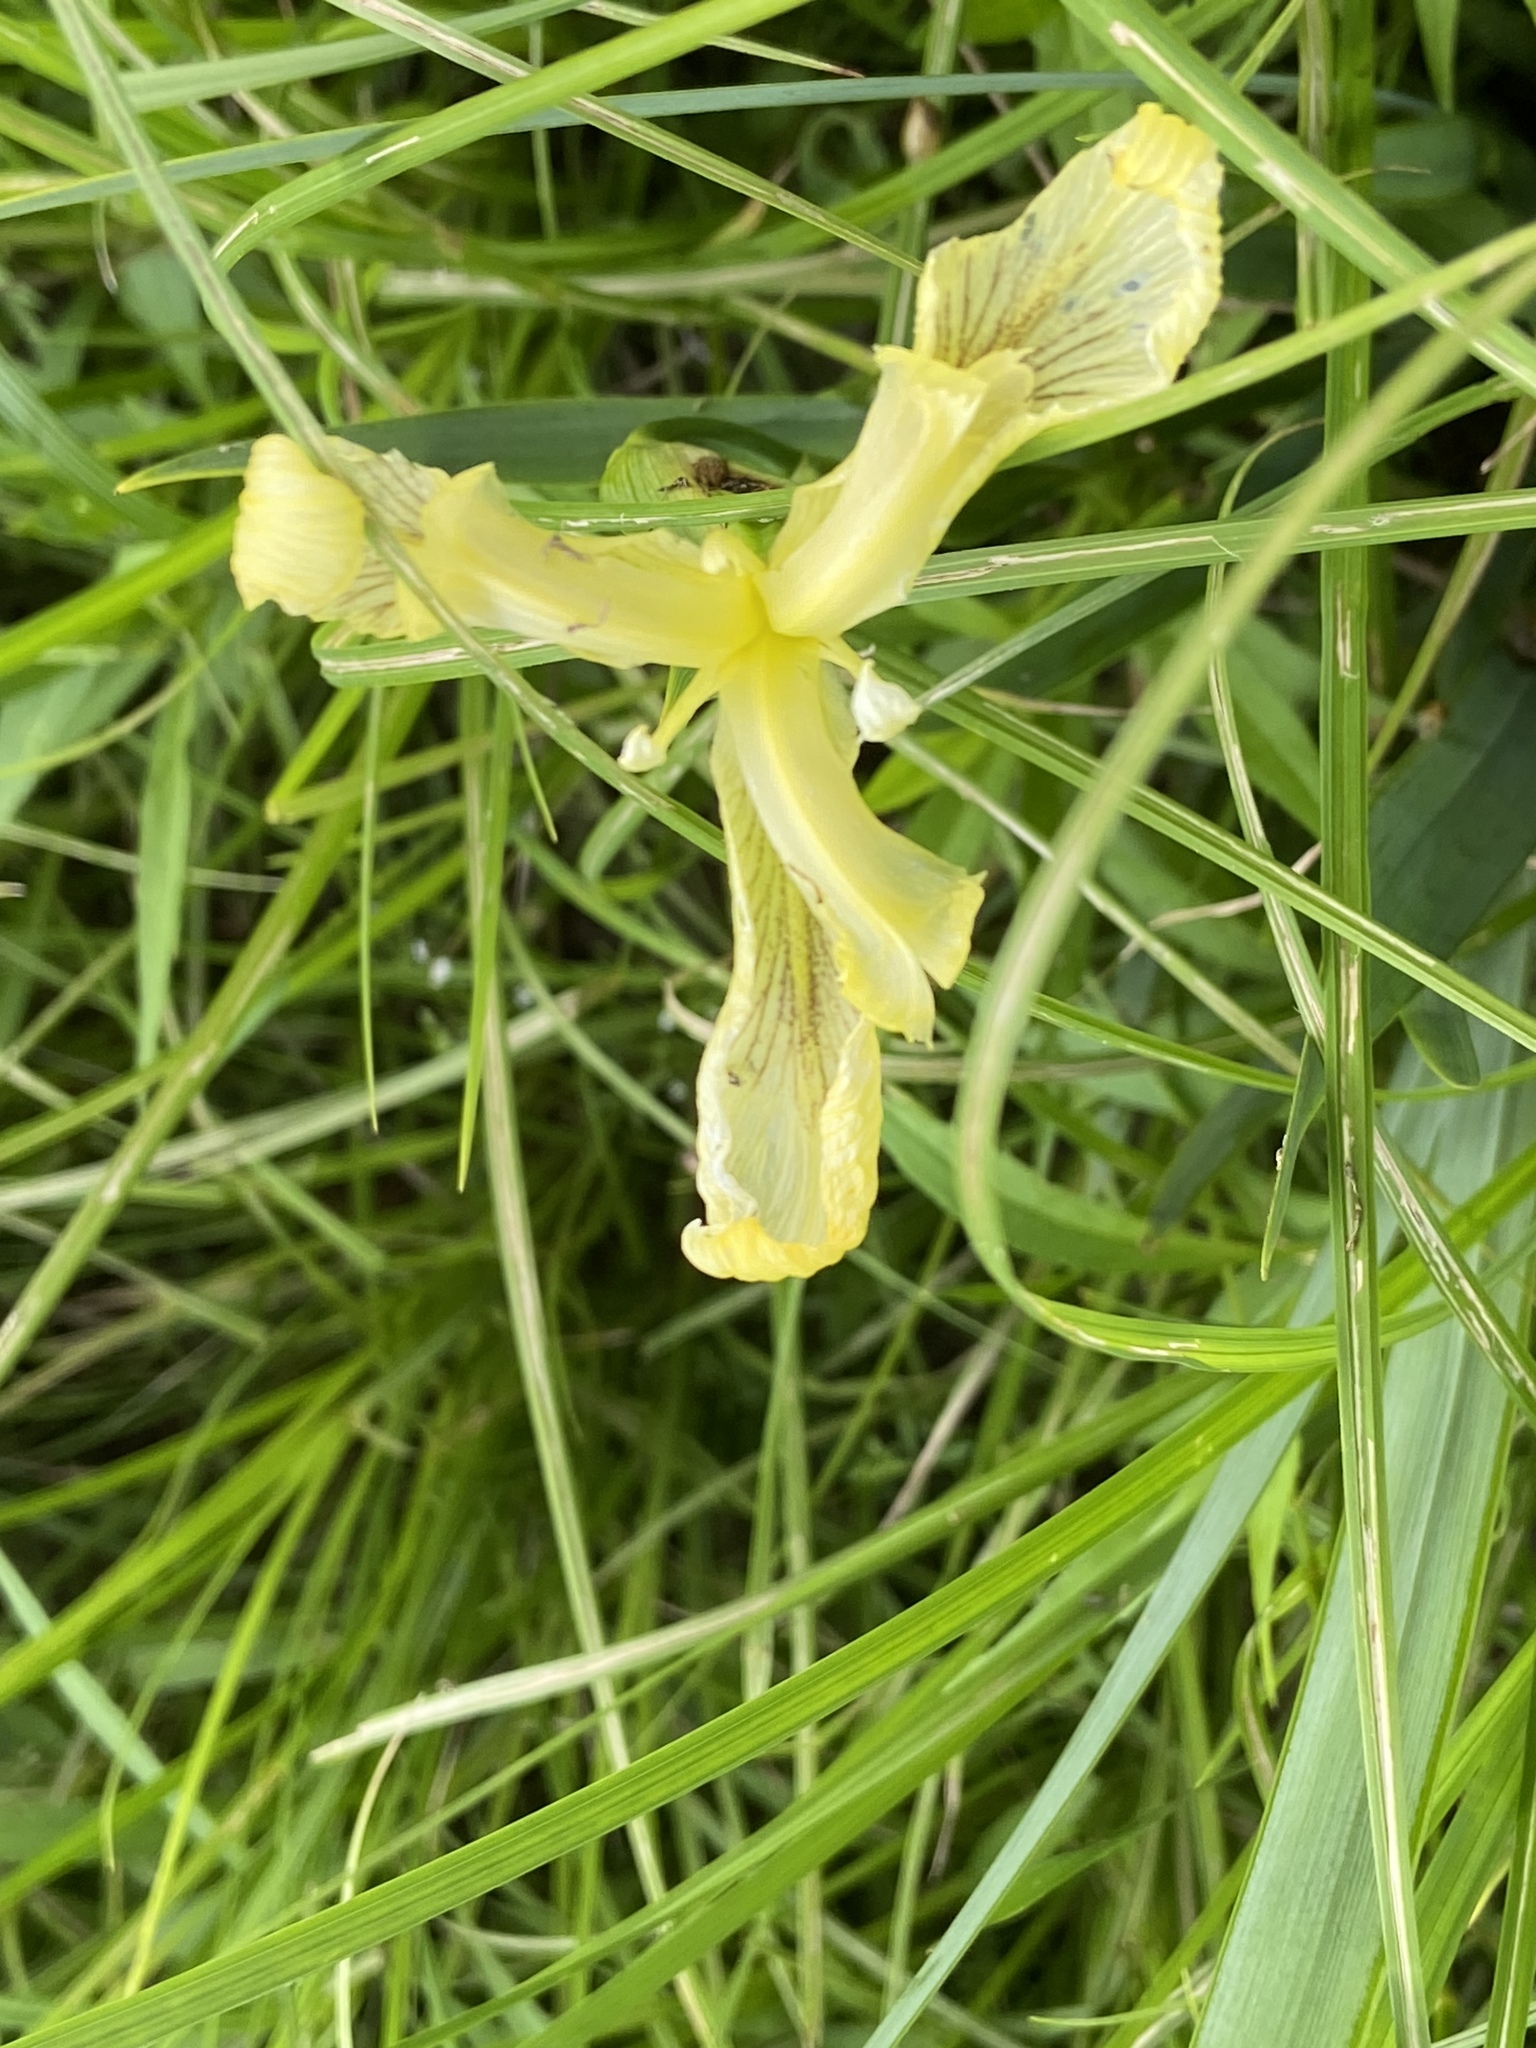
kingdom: Plantae
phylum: Tracheophyta
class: Liliopsida
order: Asparagales
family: Iridaceae
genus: Iris
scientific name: Iris pseudacorus
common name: Yellow flag
